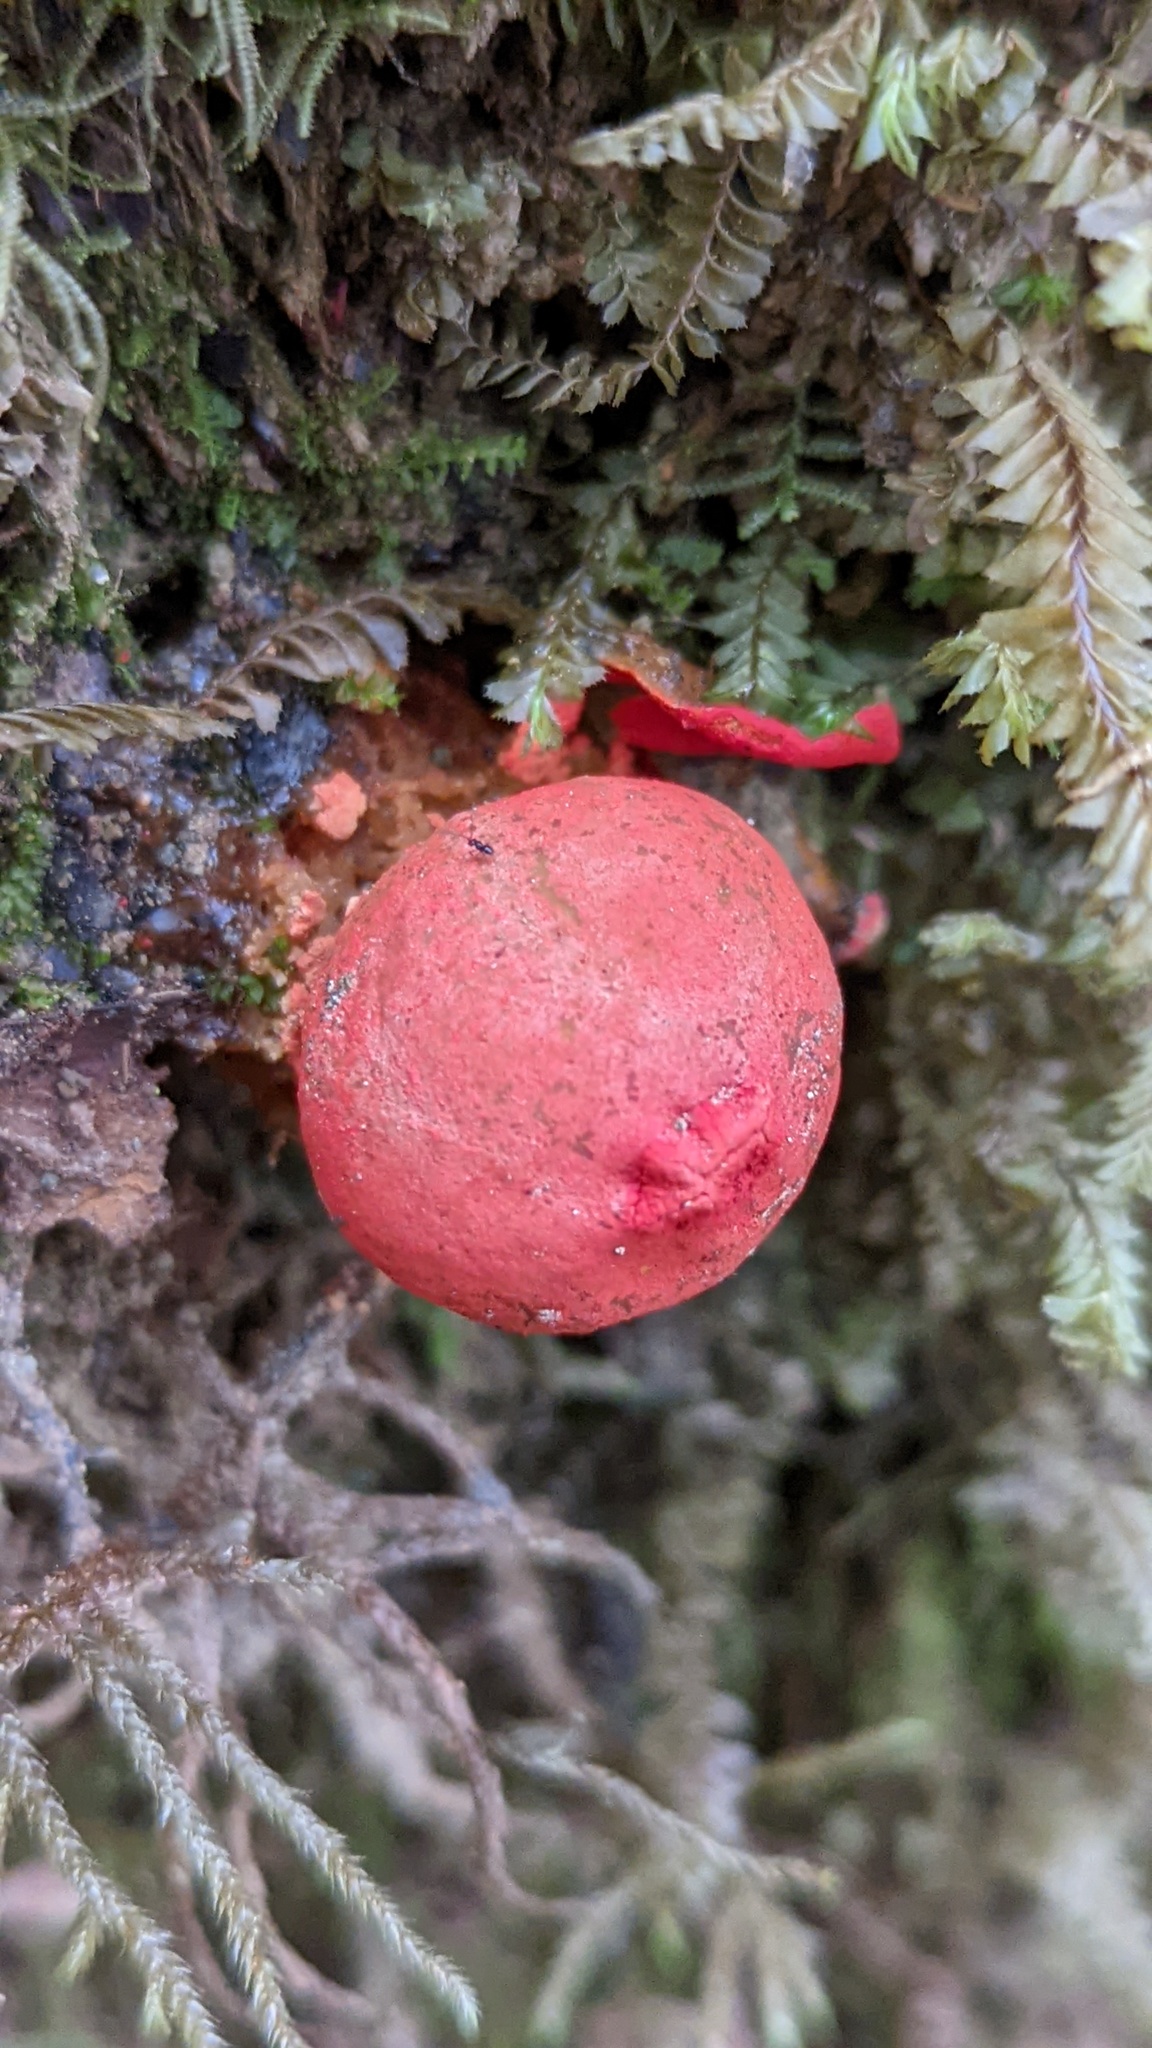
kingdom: Fungi
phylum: Basidiomycota
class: Agaricomycetes
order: Boletales
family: Calostomataceae
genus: Calostoma
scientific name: Calostoma cinnabarinum
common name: Stalked puffball-in-aspic
